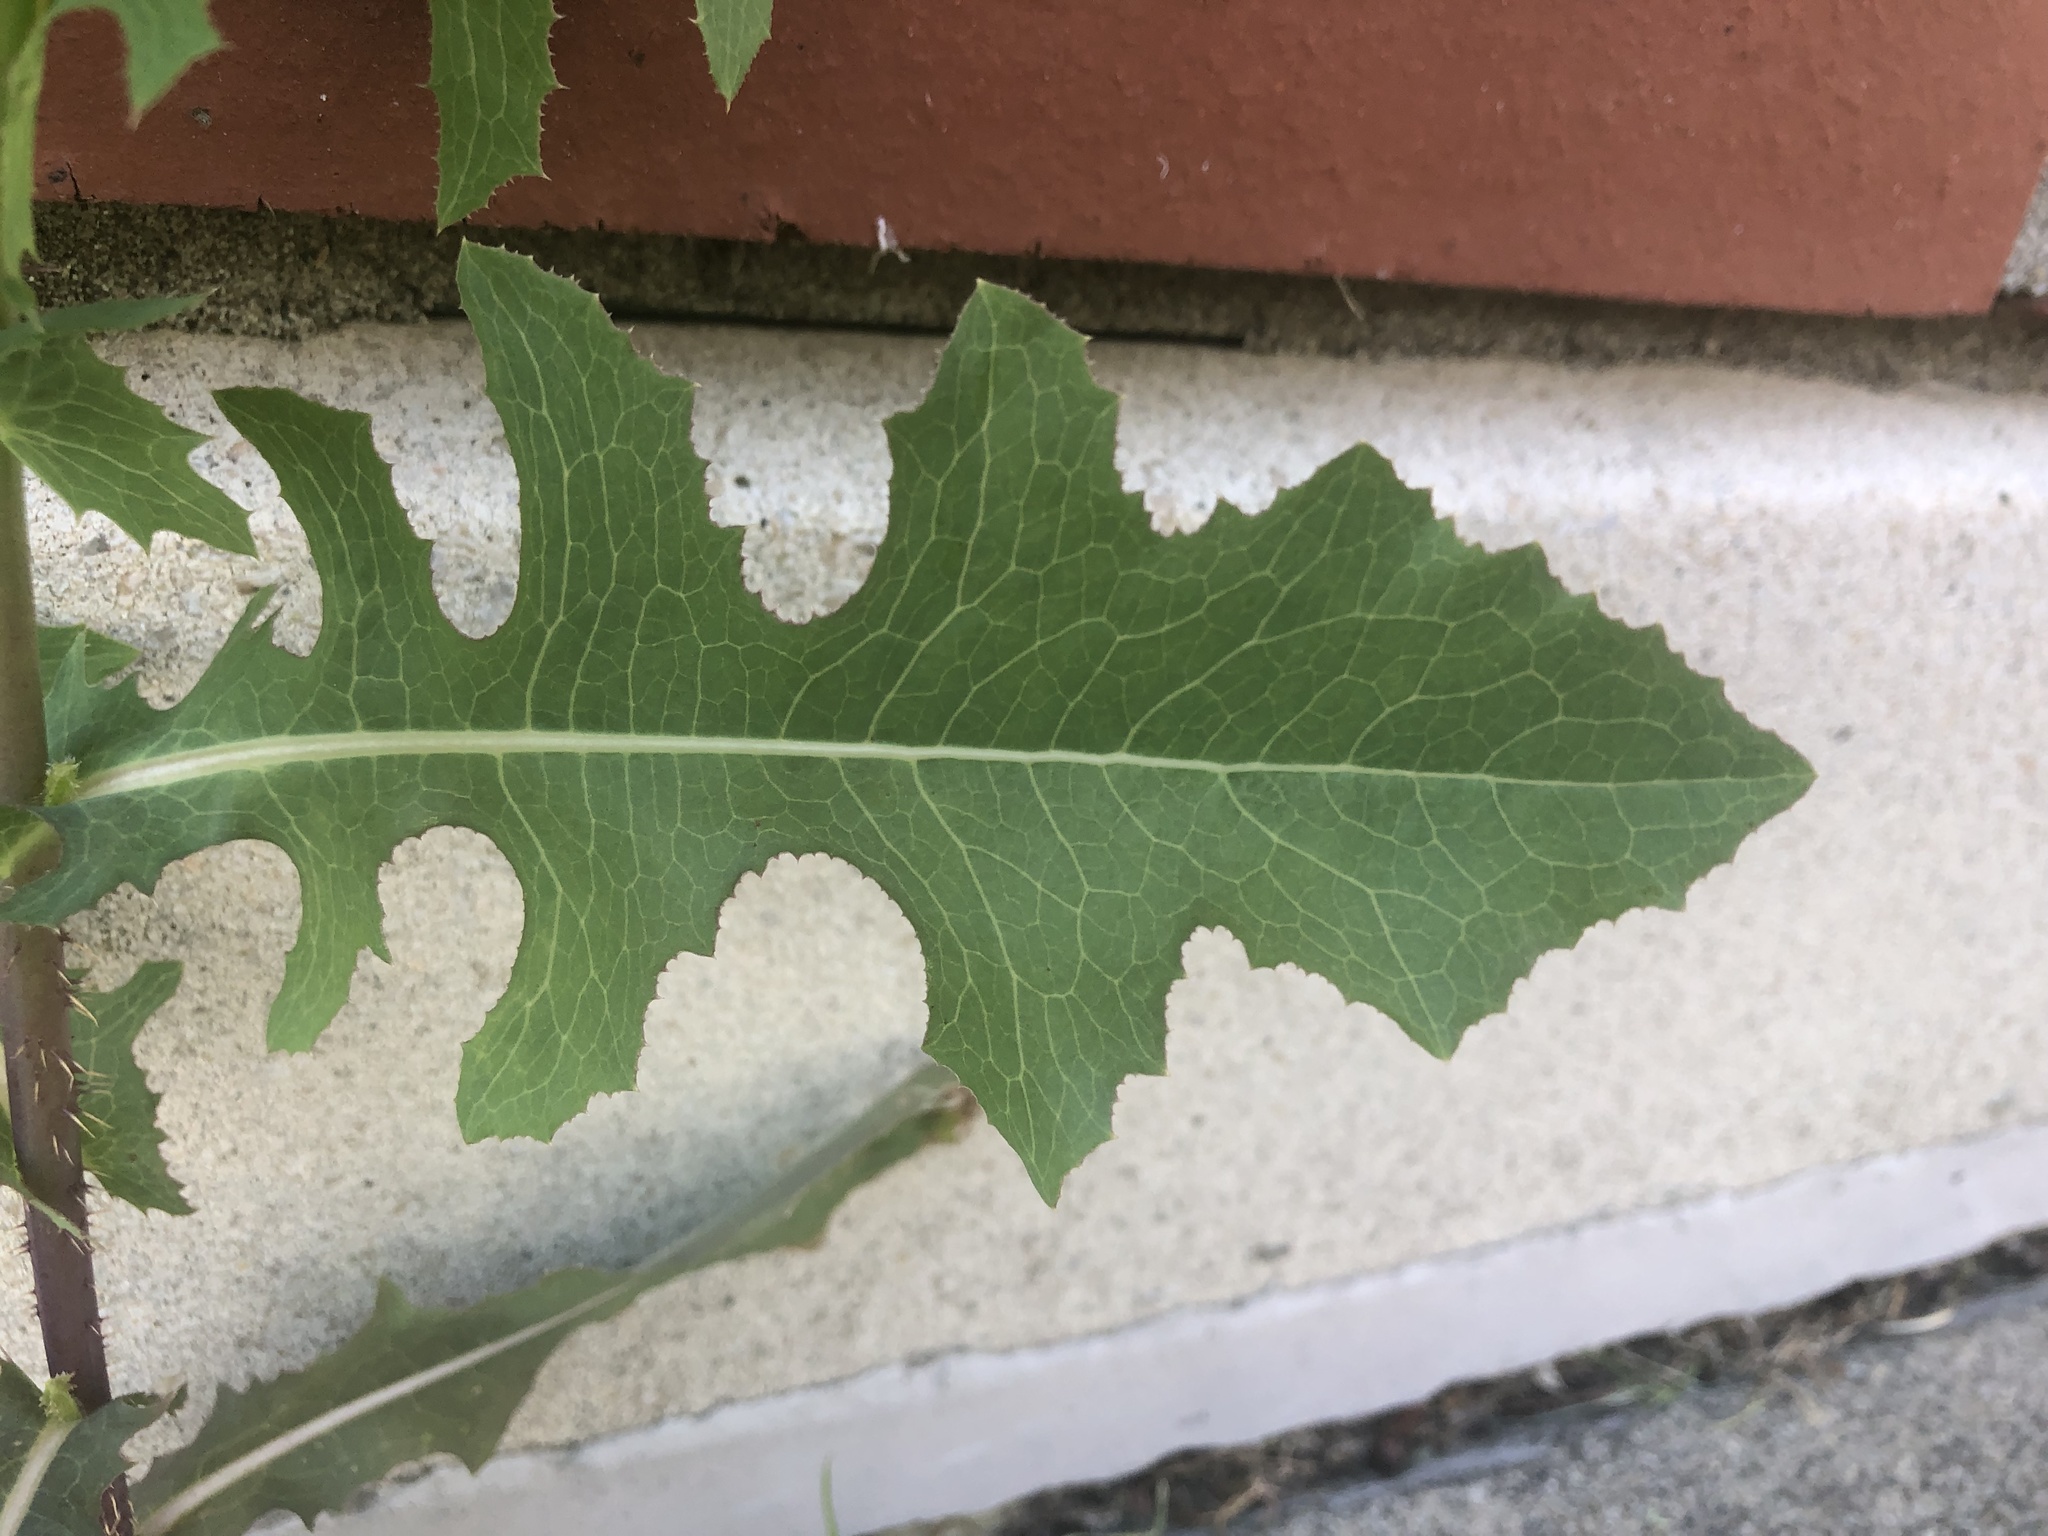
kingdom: Plantae
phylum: Tracheophyta
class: Magnoliopsida
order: Asterales
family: Asteraceae
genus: Lactuca
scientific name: Lactuca serriola
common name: Prickly lettuce
